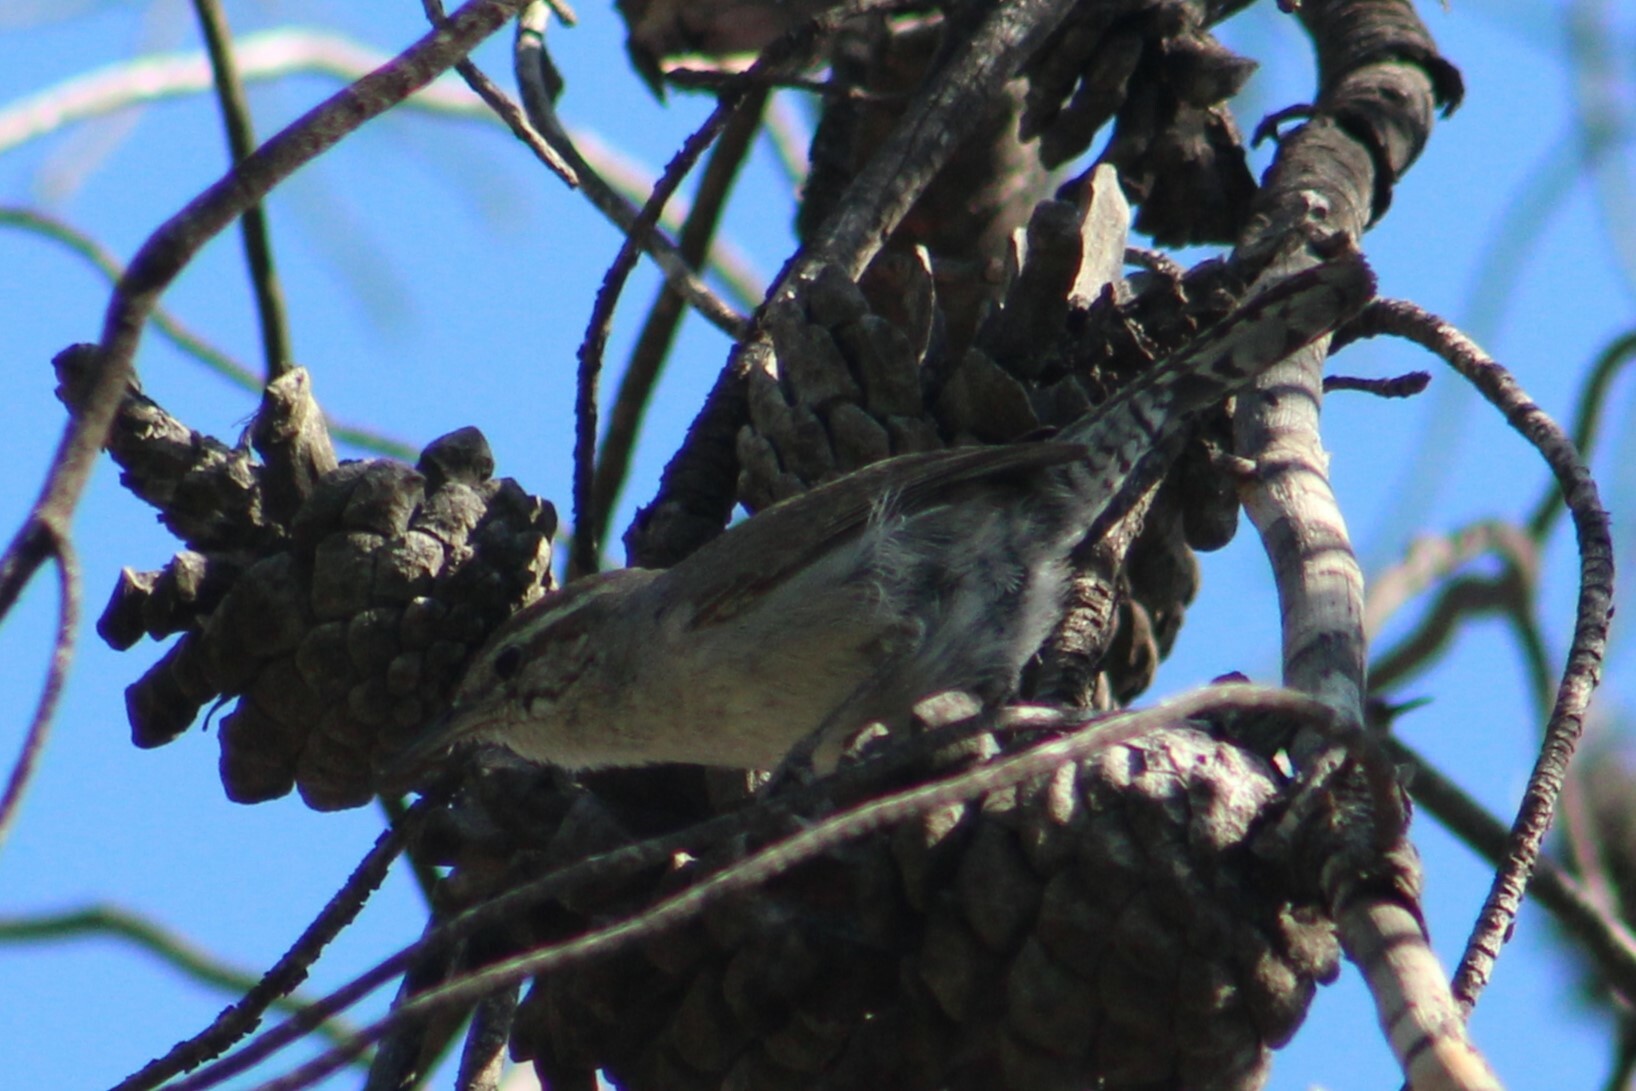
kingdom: Animalia
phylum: Chordata
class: Aves
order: Passeriformes
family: Troglodytidae
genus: Thryomanes
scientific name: Thryomanes bewickii
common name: Bewick's wren
